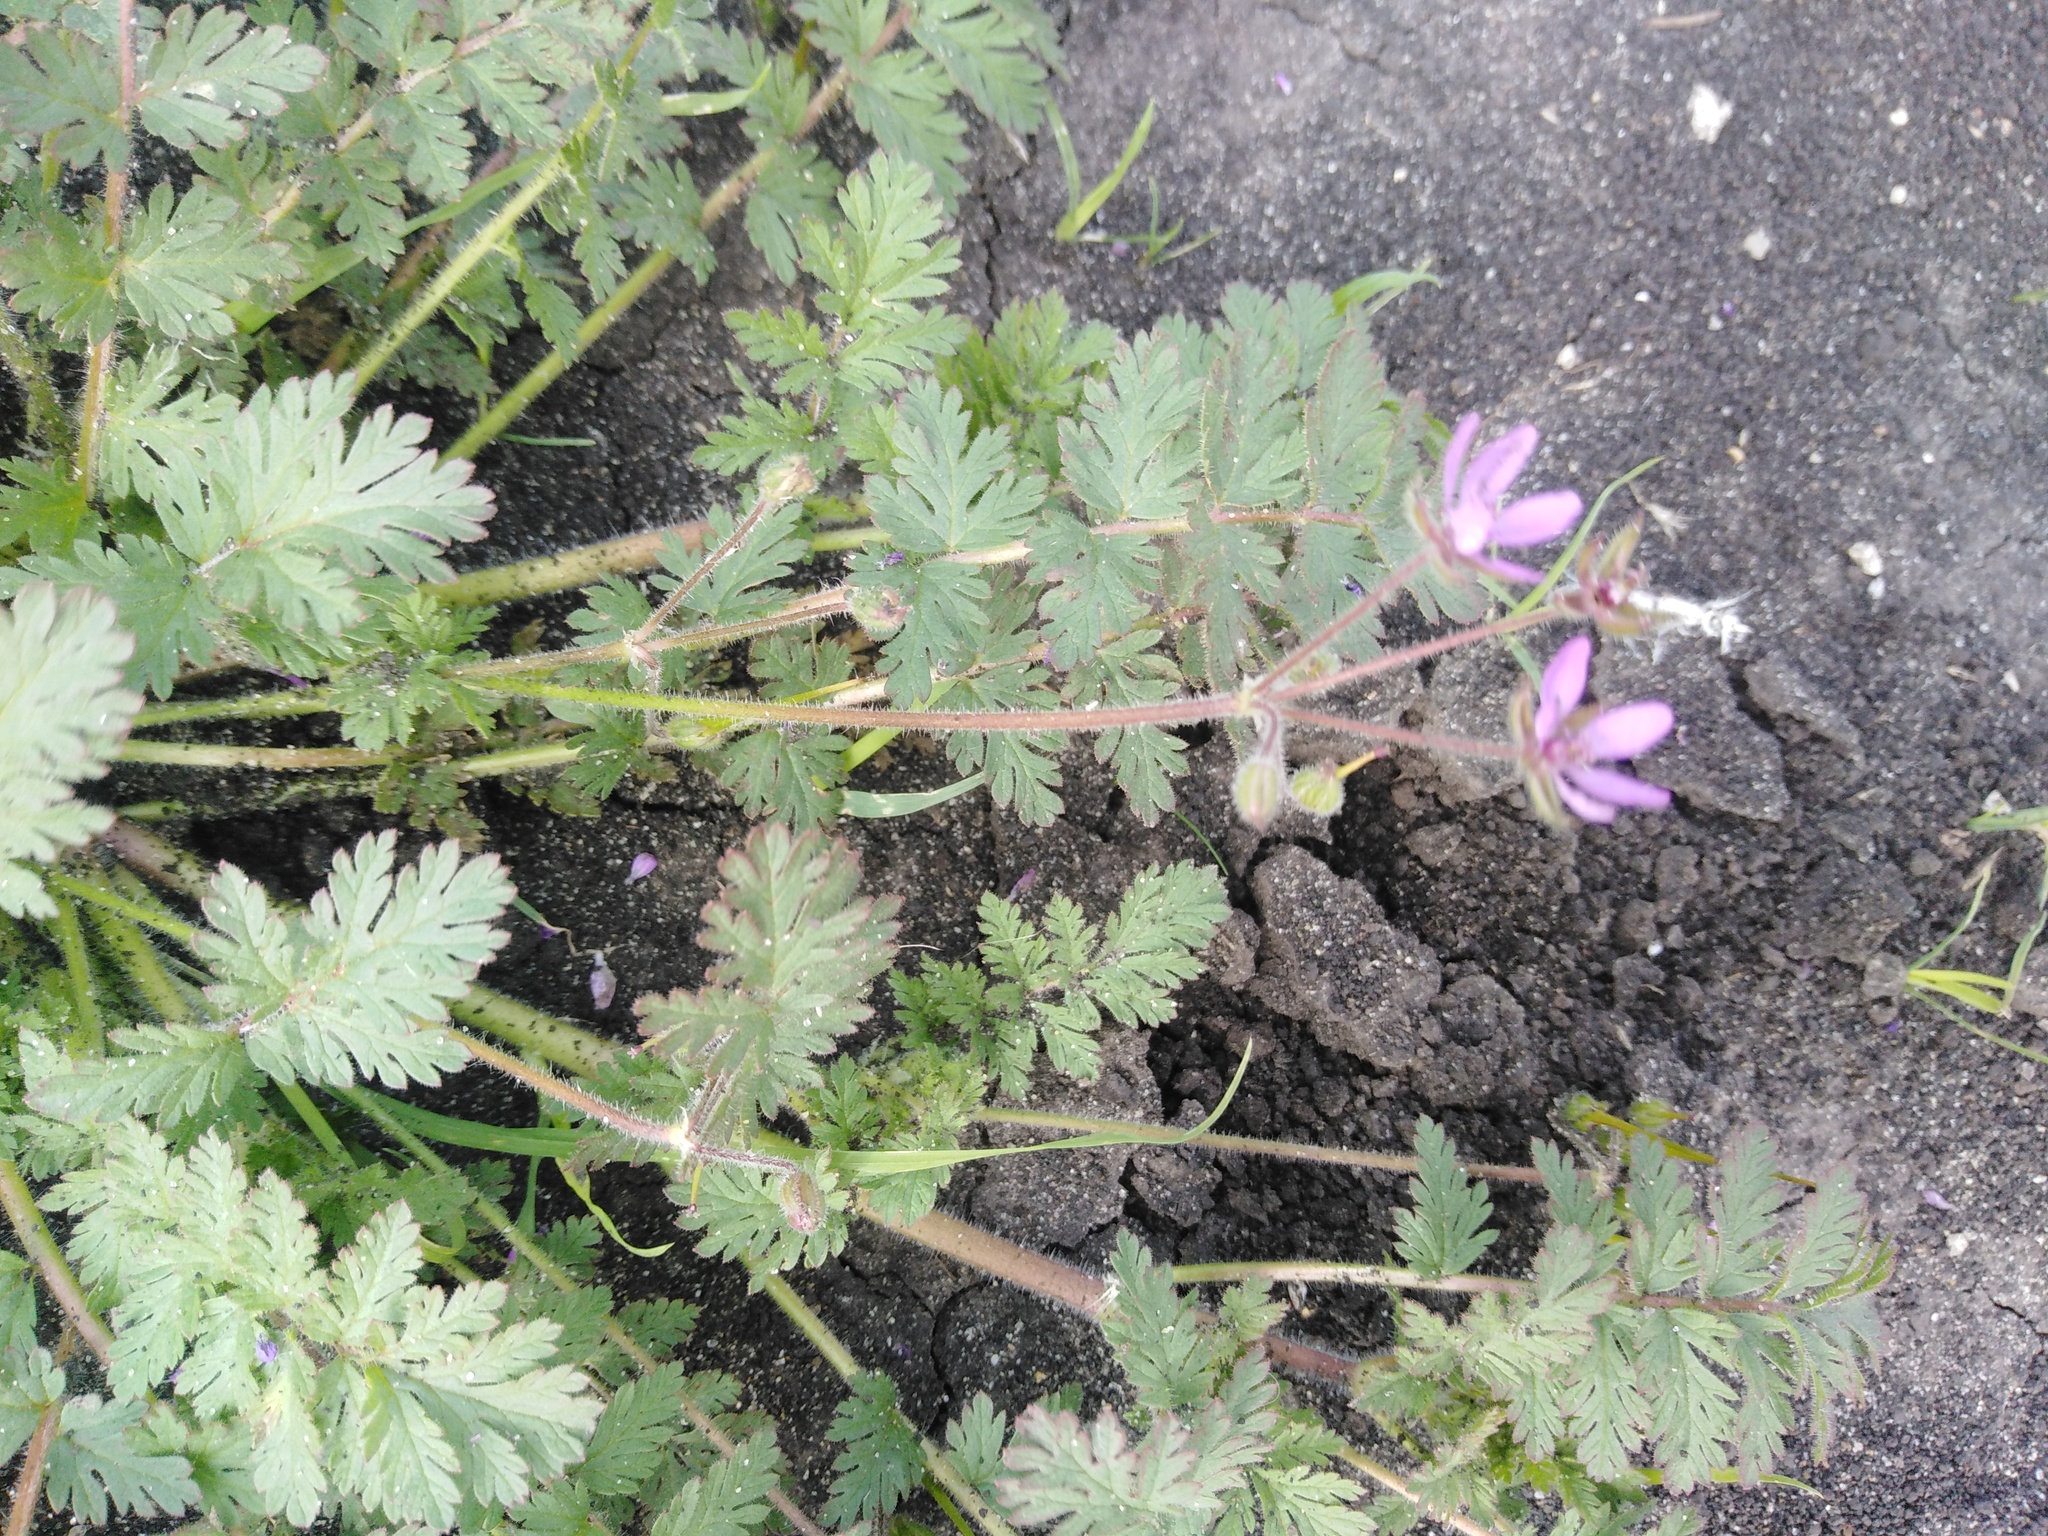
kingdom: Plantae
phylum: Tracheophyta
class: Magnoliopsida
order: Geraniales
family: Geraniaceae
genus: Erodium
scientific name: Erodium cicutarium
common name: Common stork's-bill
